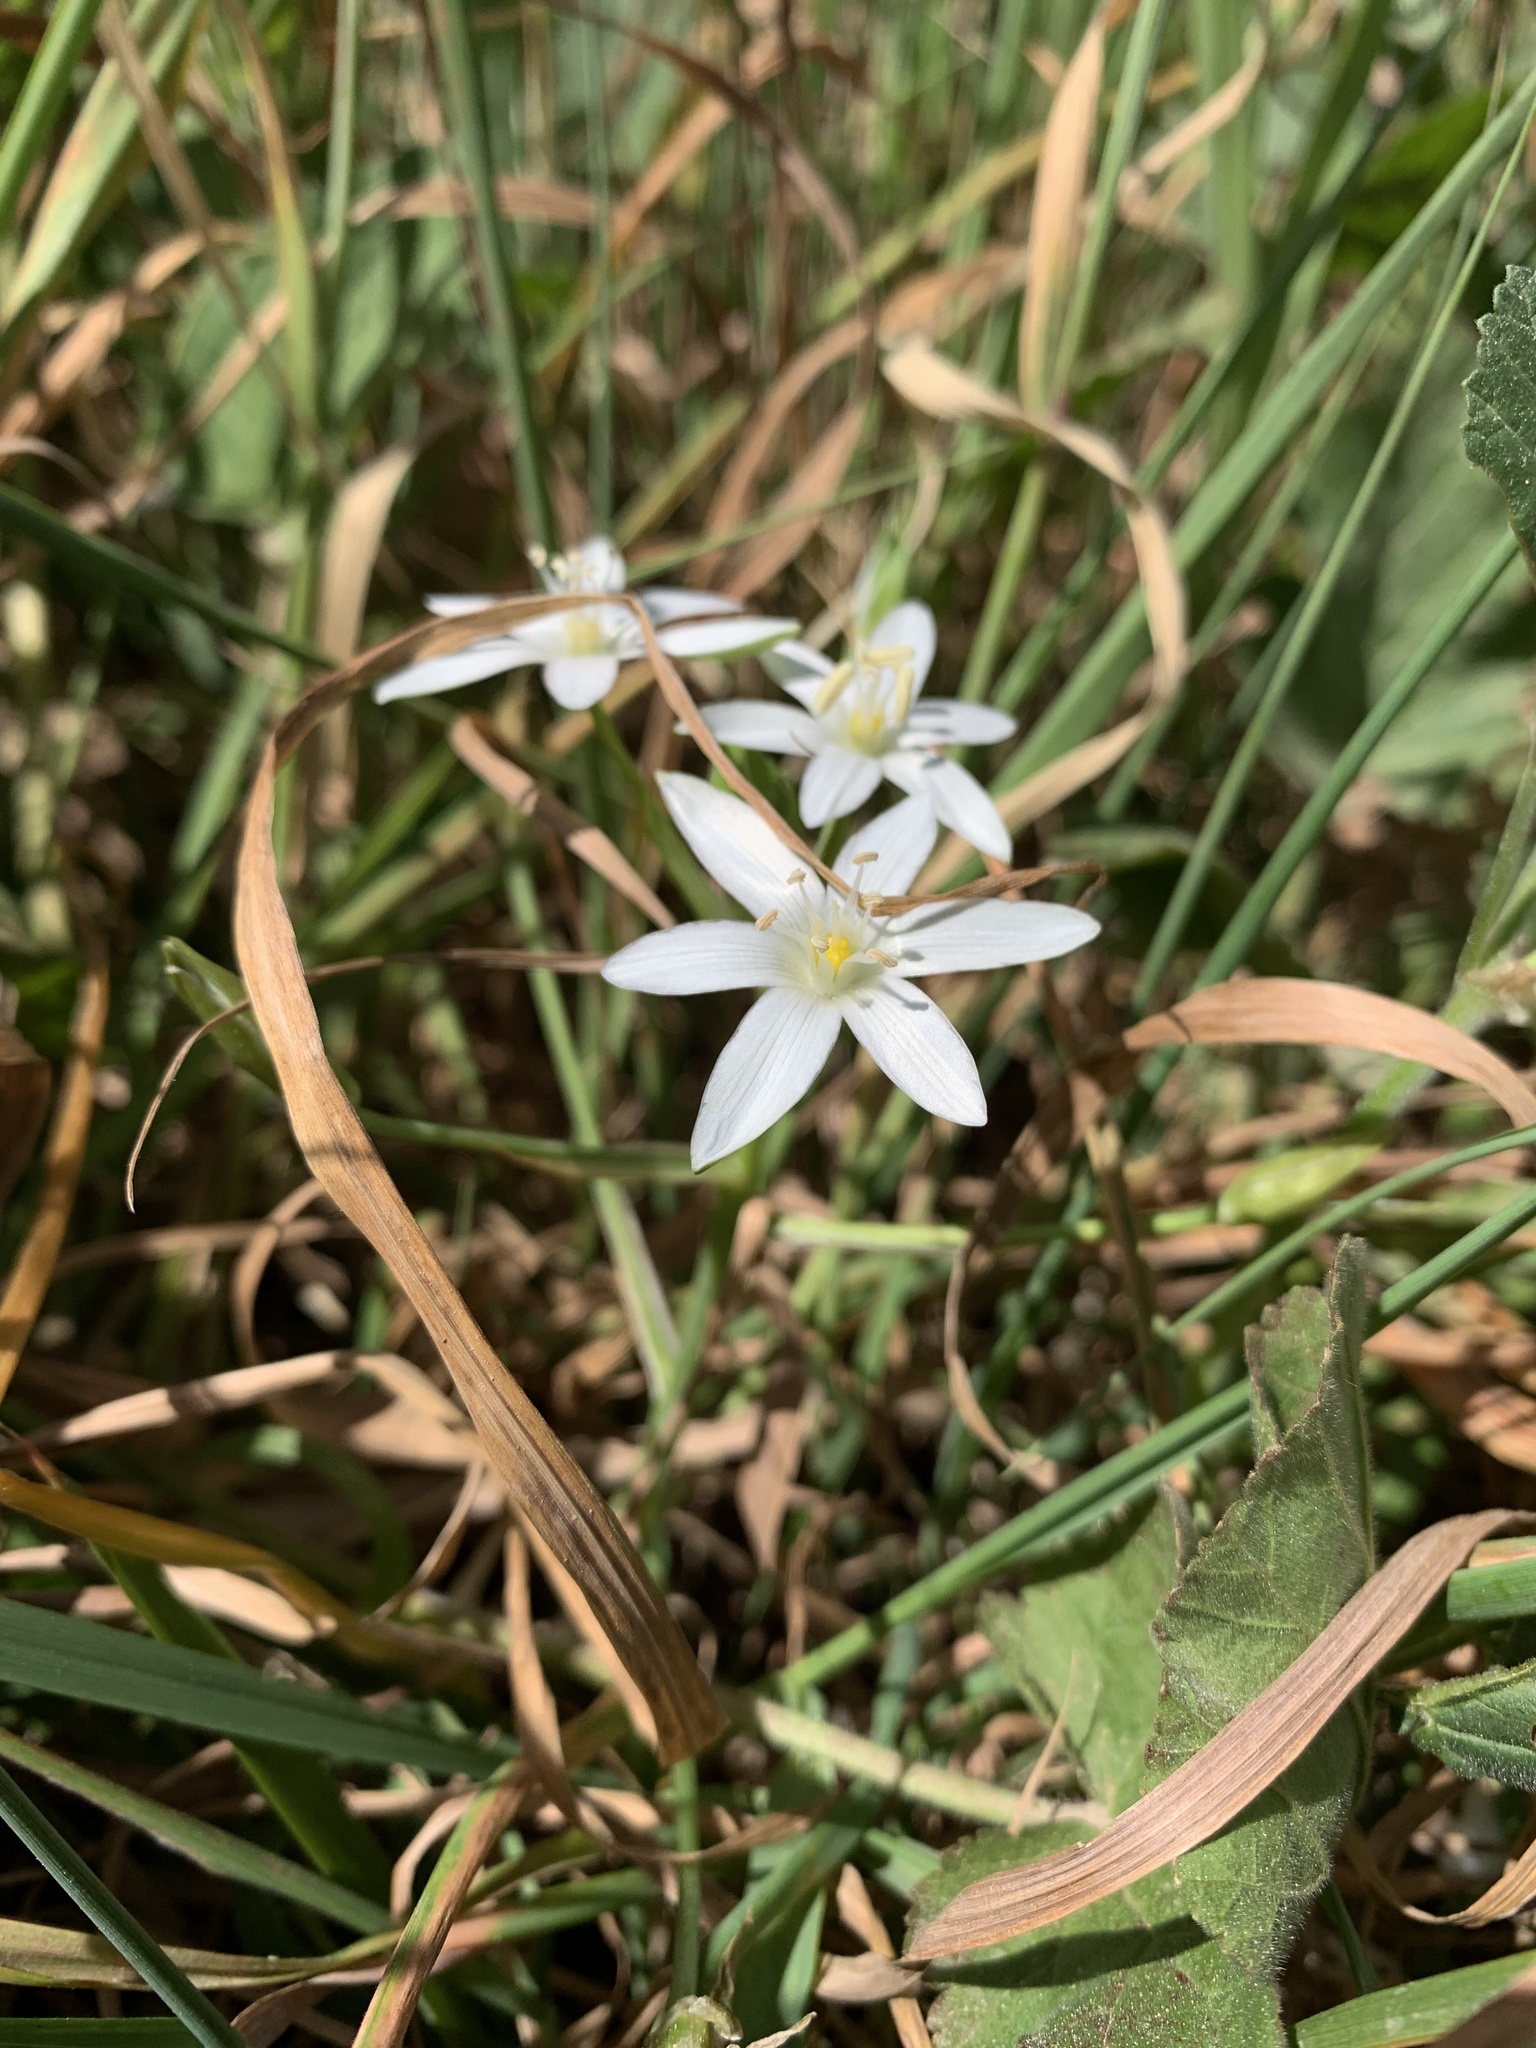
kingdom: Plantae
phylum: Tracheophyta
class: Liliopsida
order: Asparagales
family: Asparagaceae
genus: Ornithogalum
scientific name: Ornithogalum umbellatum
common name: Garden star-of-bethlehem
